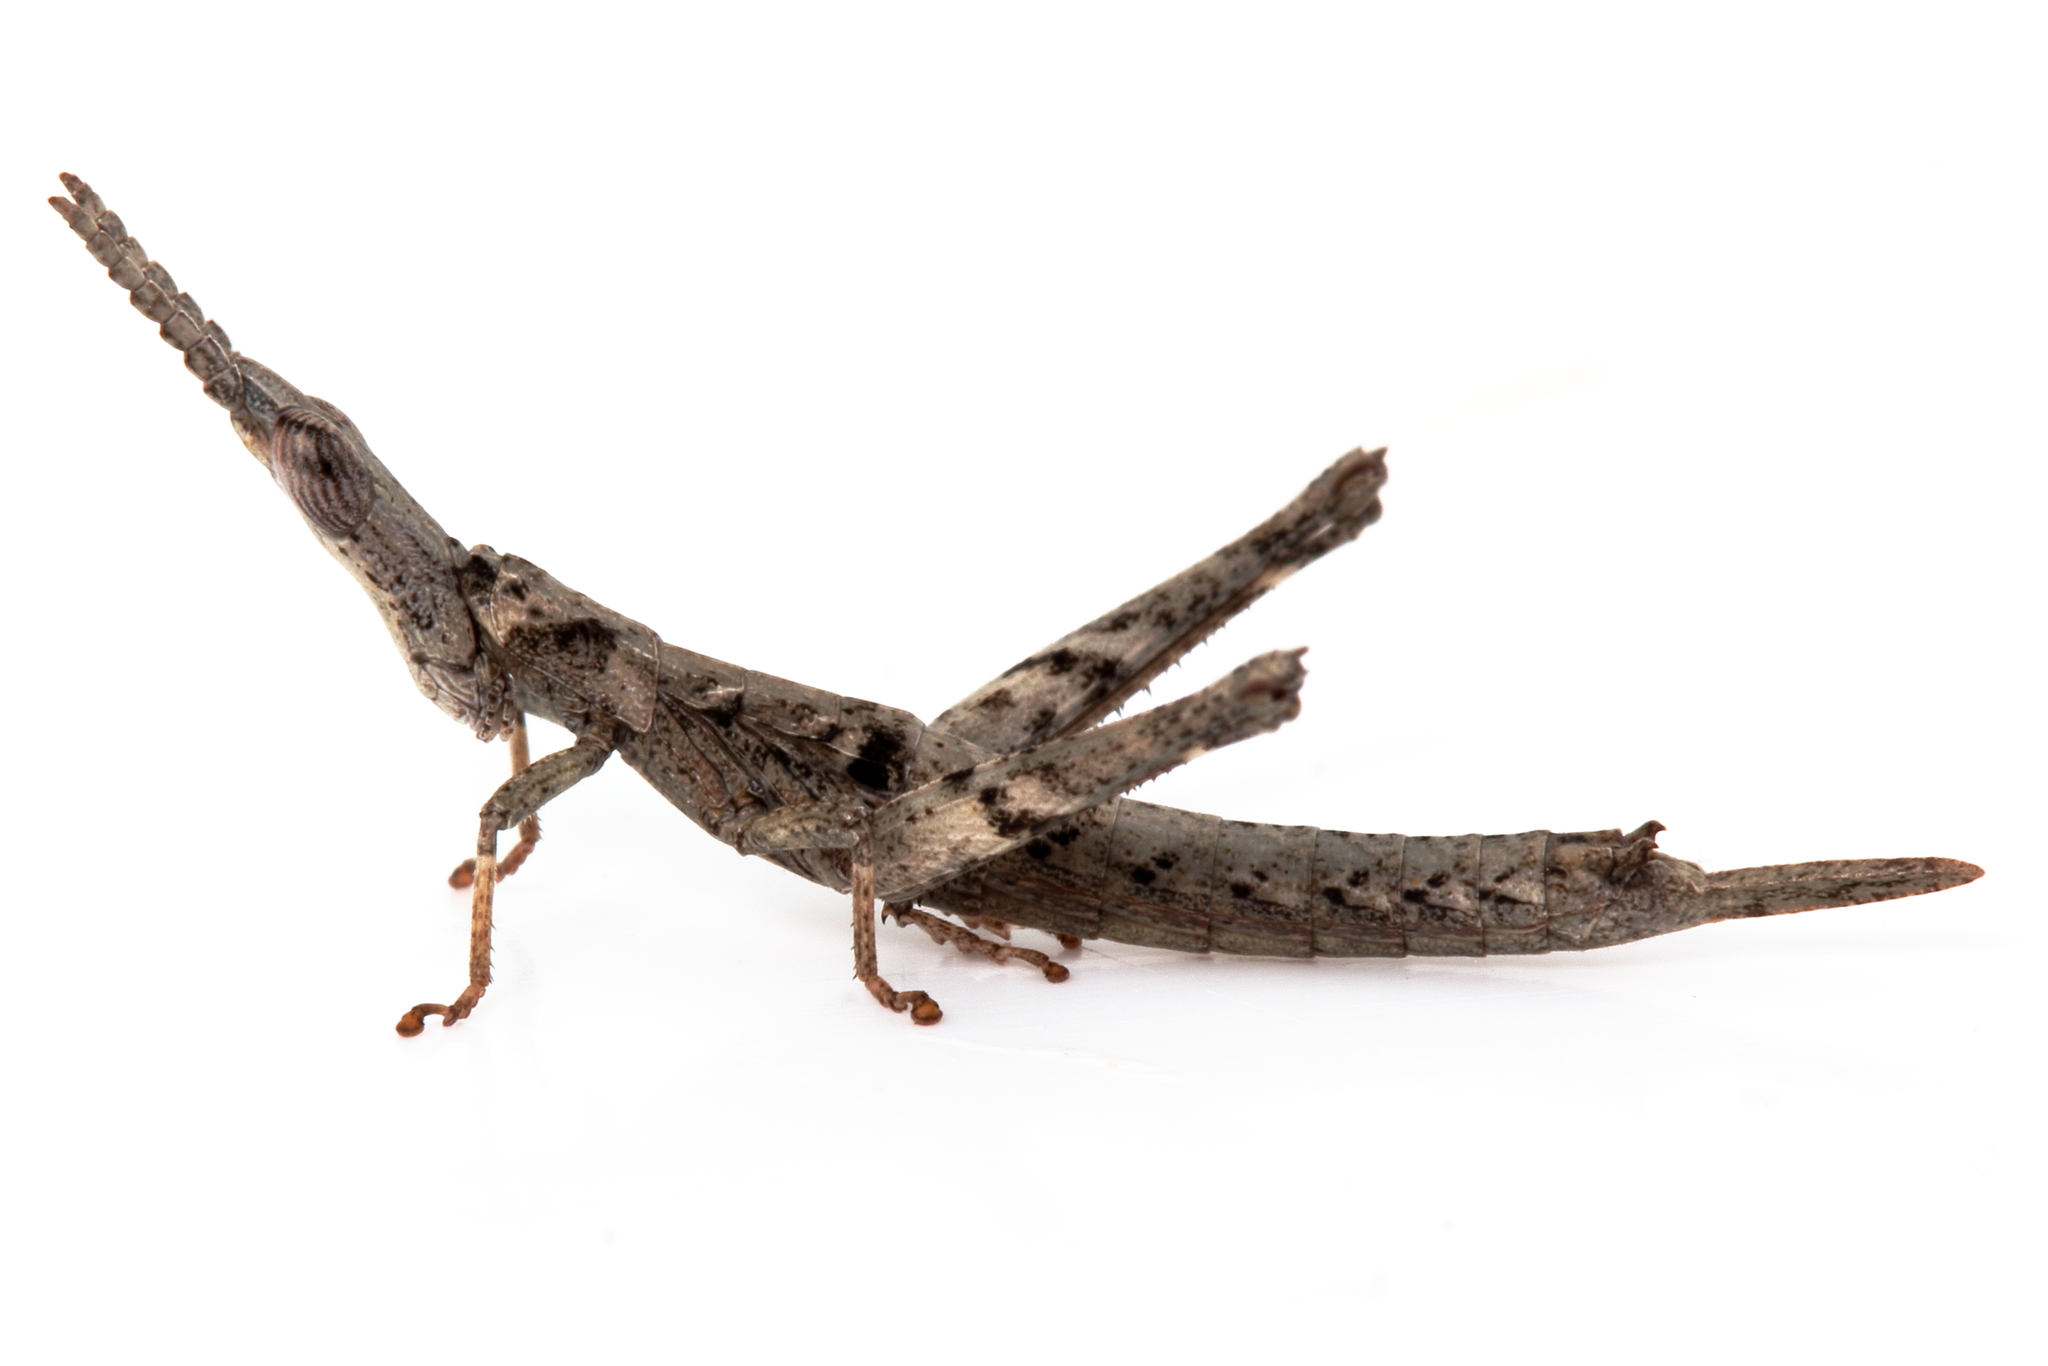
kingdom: Animalia
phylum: Arthropoda
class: Insecta
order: Orthoptera
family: Morabidae
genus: Vandiemenella
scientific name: Vandiemenella viatica
